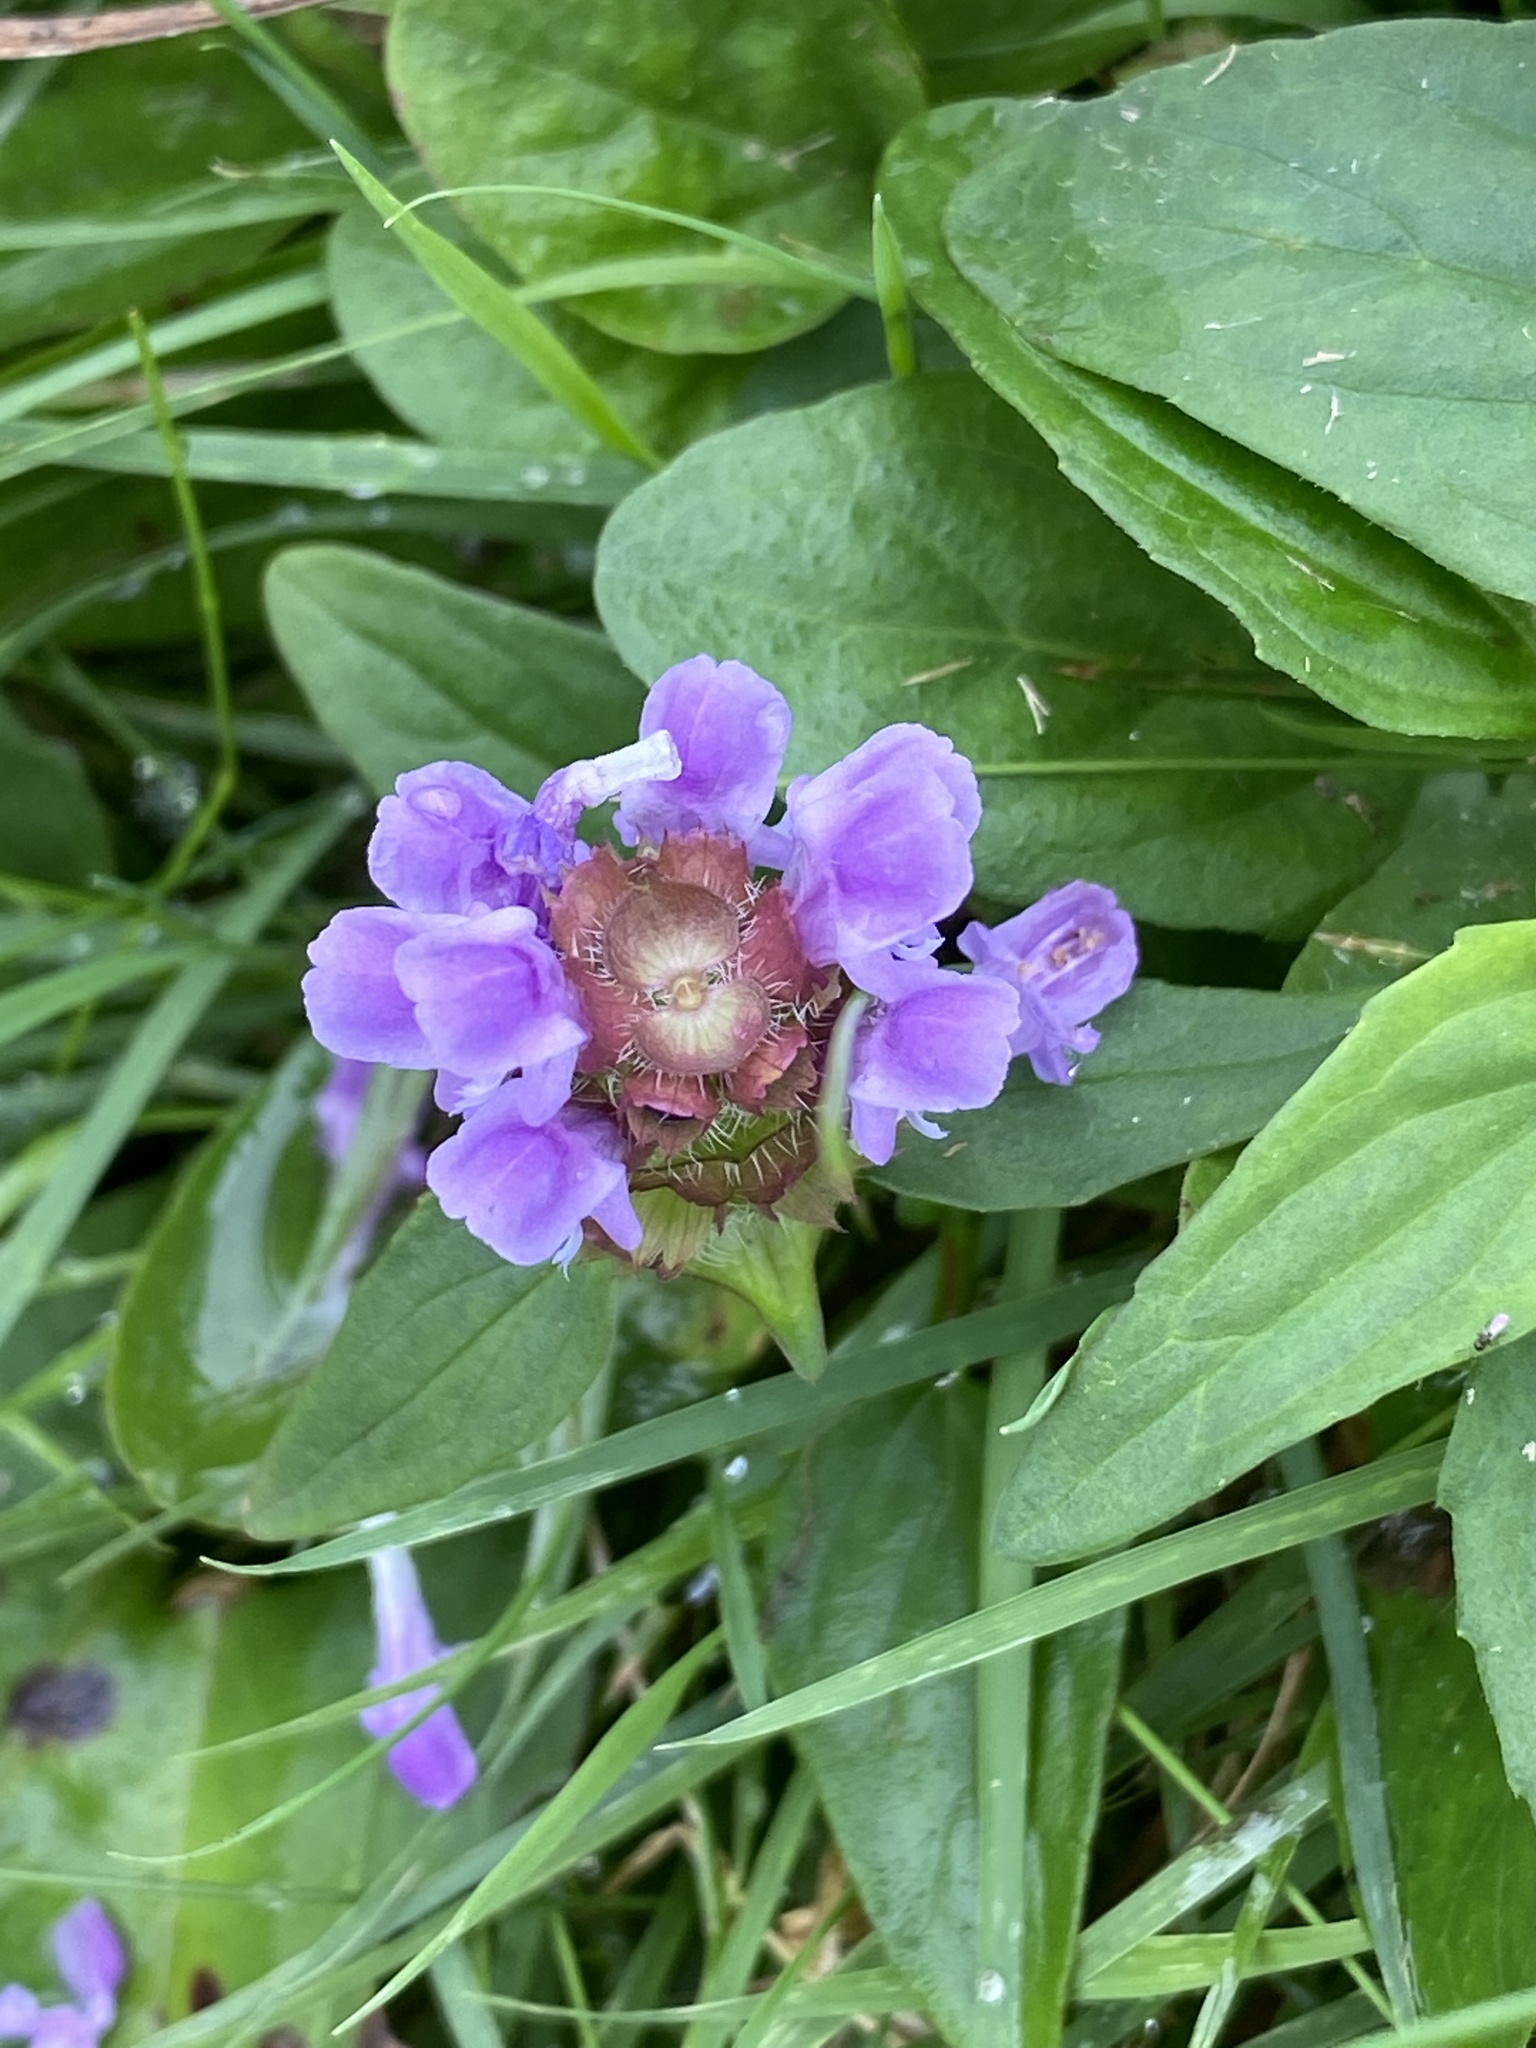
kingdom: Plantae
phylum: Tracheophyta
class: Magnoliopsida
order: Lamiales
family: Lamiaceae
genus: Prunella
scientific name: Prunella vulgaris
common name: Heal-all
